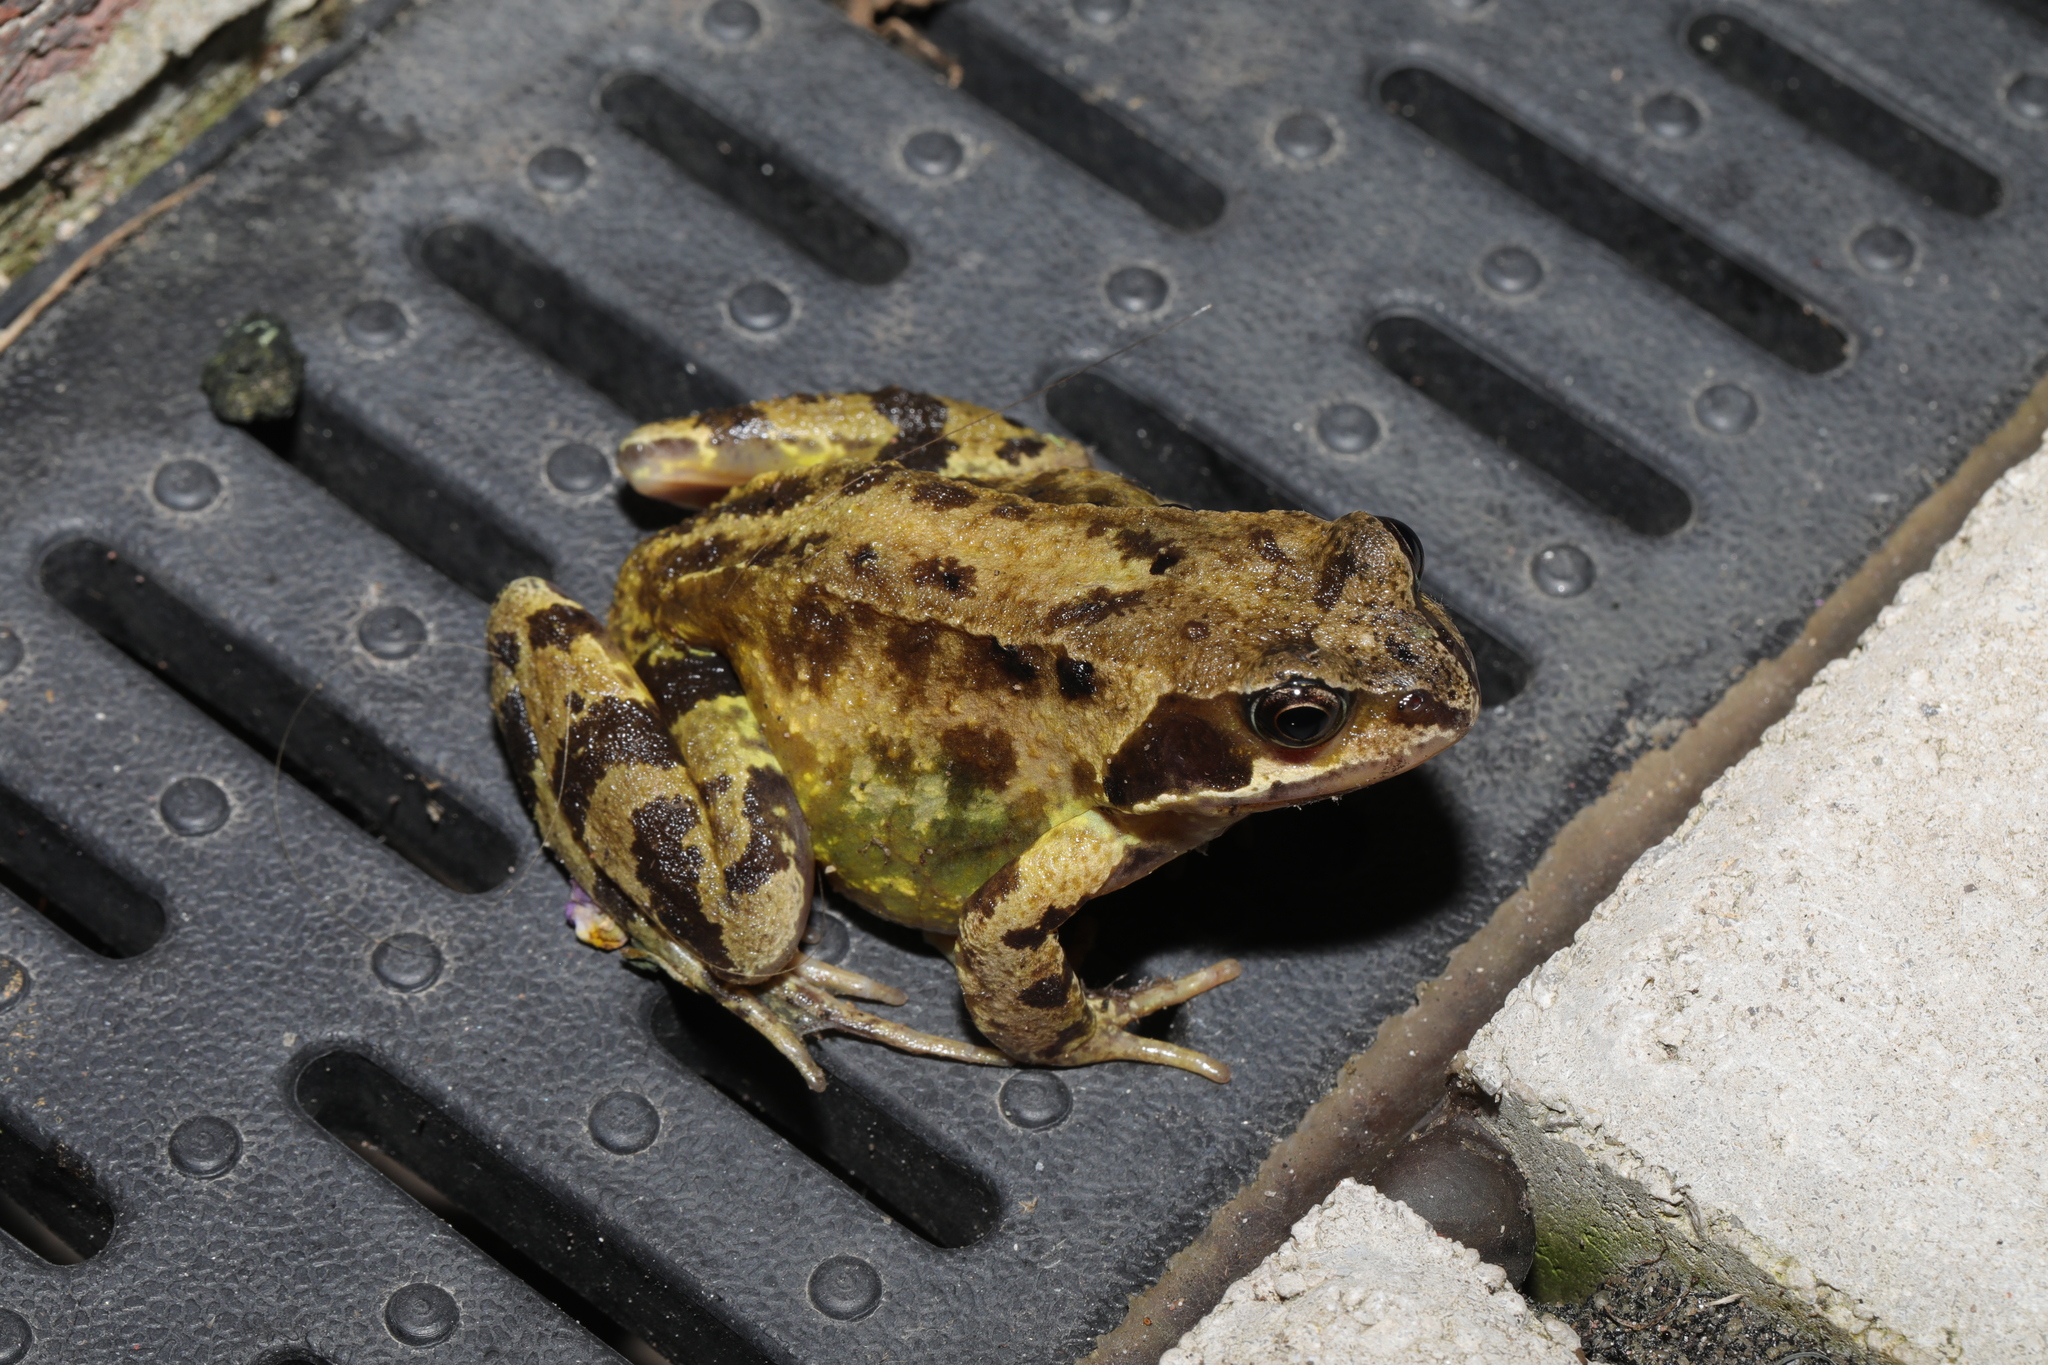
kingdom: Animalia
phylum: Chordata
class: Amphibia
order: Anura
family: Ranidae
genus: Rana
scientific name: Rana temporaria
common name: Common frog
